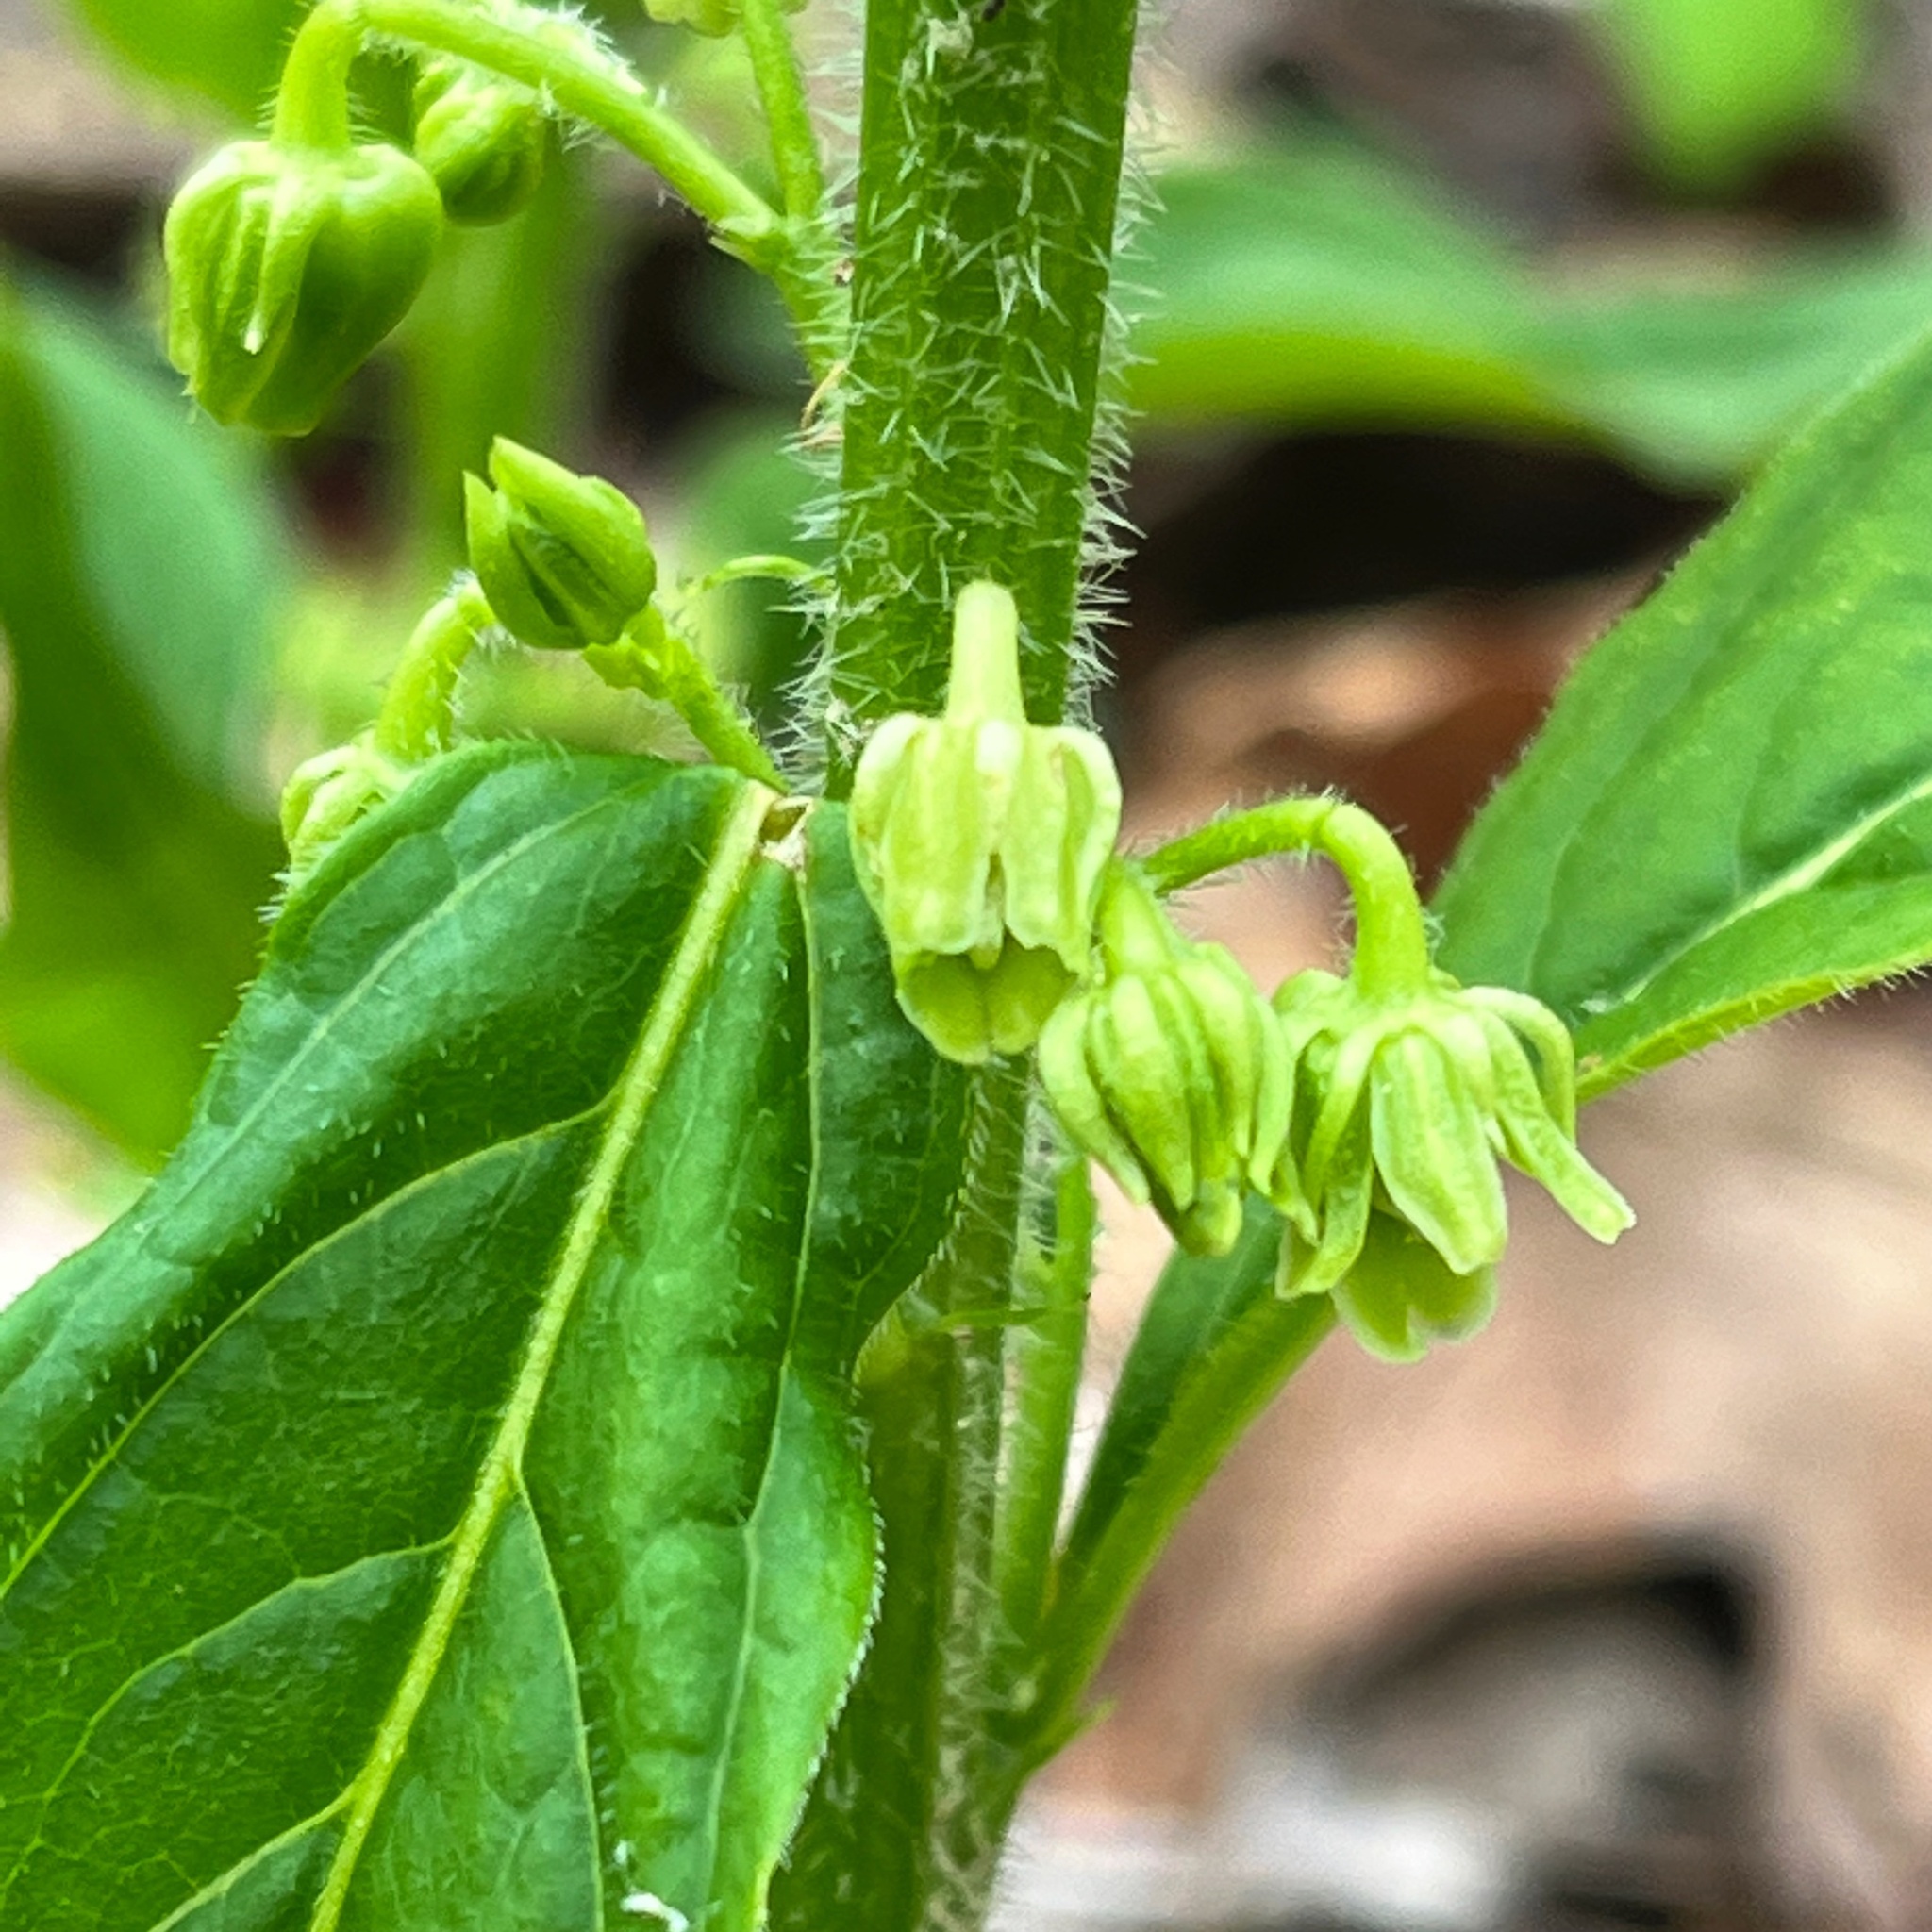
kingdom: Plantae
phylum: Tracheophyta
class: Magnoliopsida
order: Malpighiales
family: Violaceae
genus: Cubelium
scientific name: Cubelium concolor
